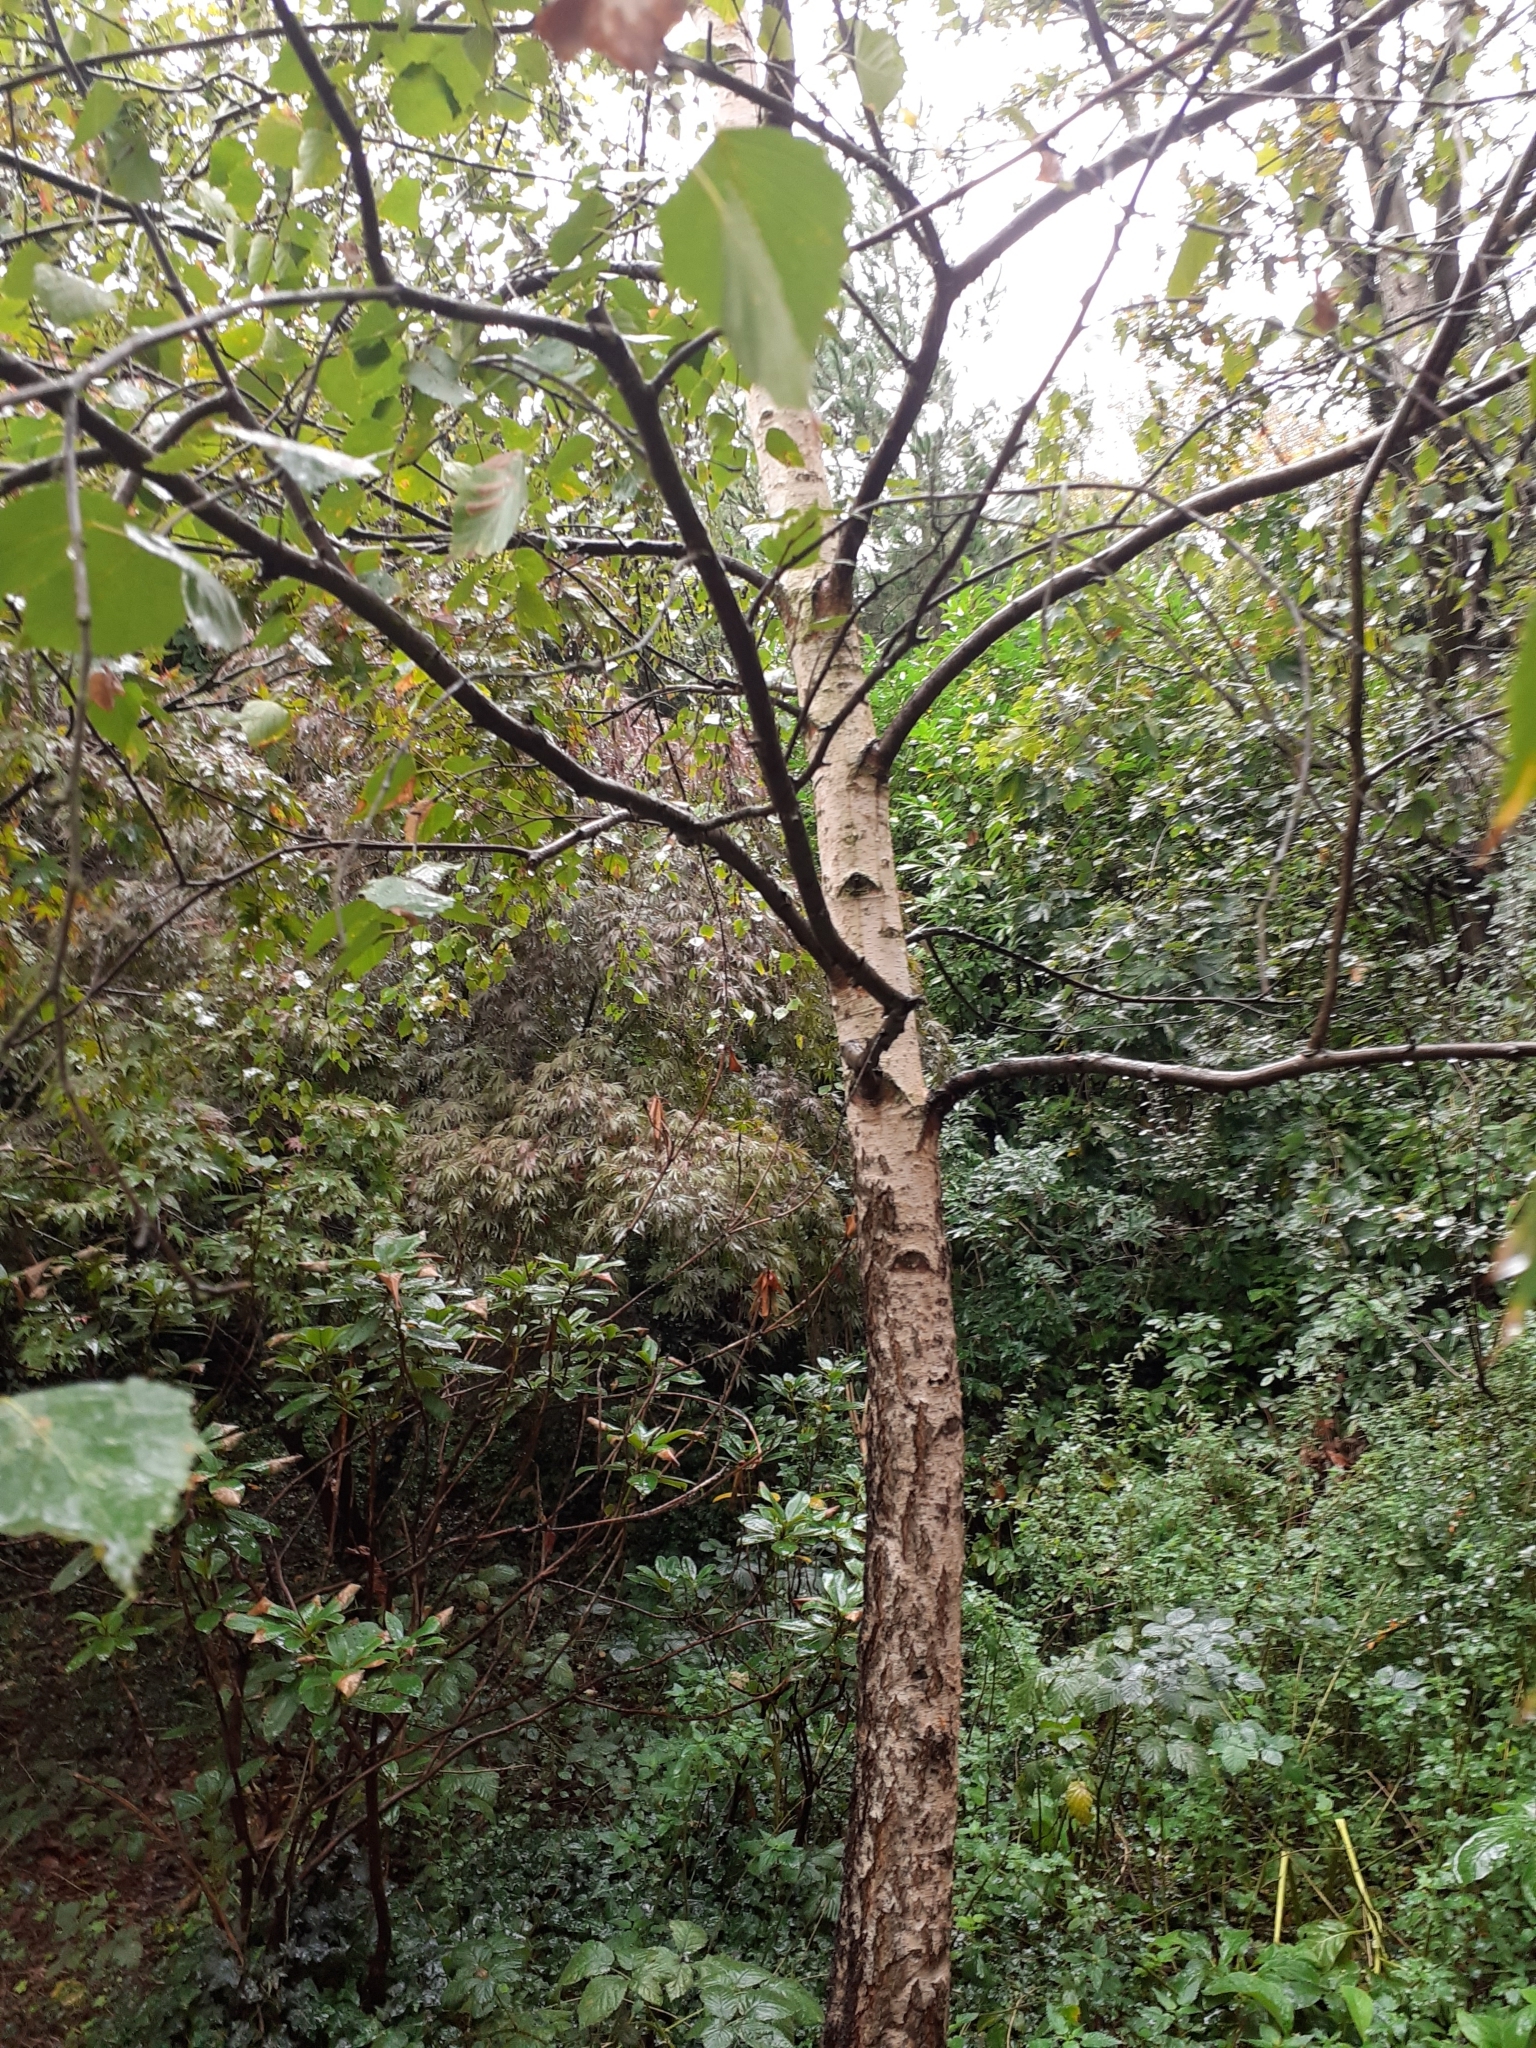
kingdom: Plantae
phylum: Tracheophyta
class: Magnoliopsida
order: Fagales
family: Betulaceae
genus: Betula
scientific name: Betula pendula
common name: Silver birch
